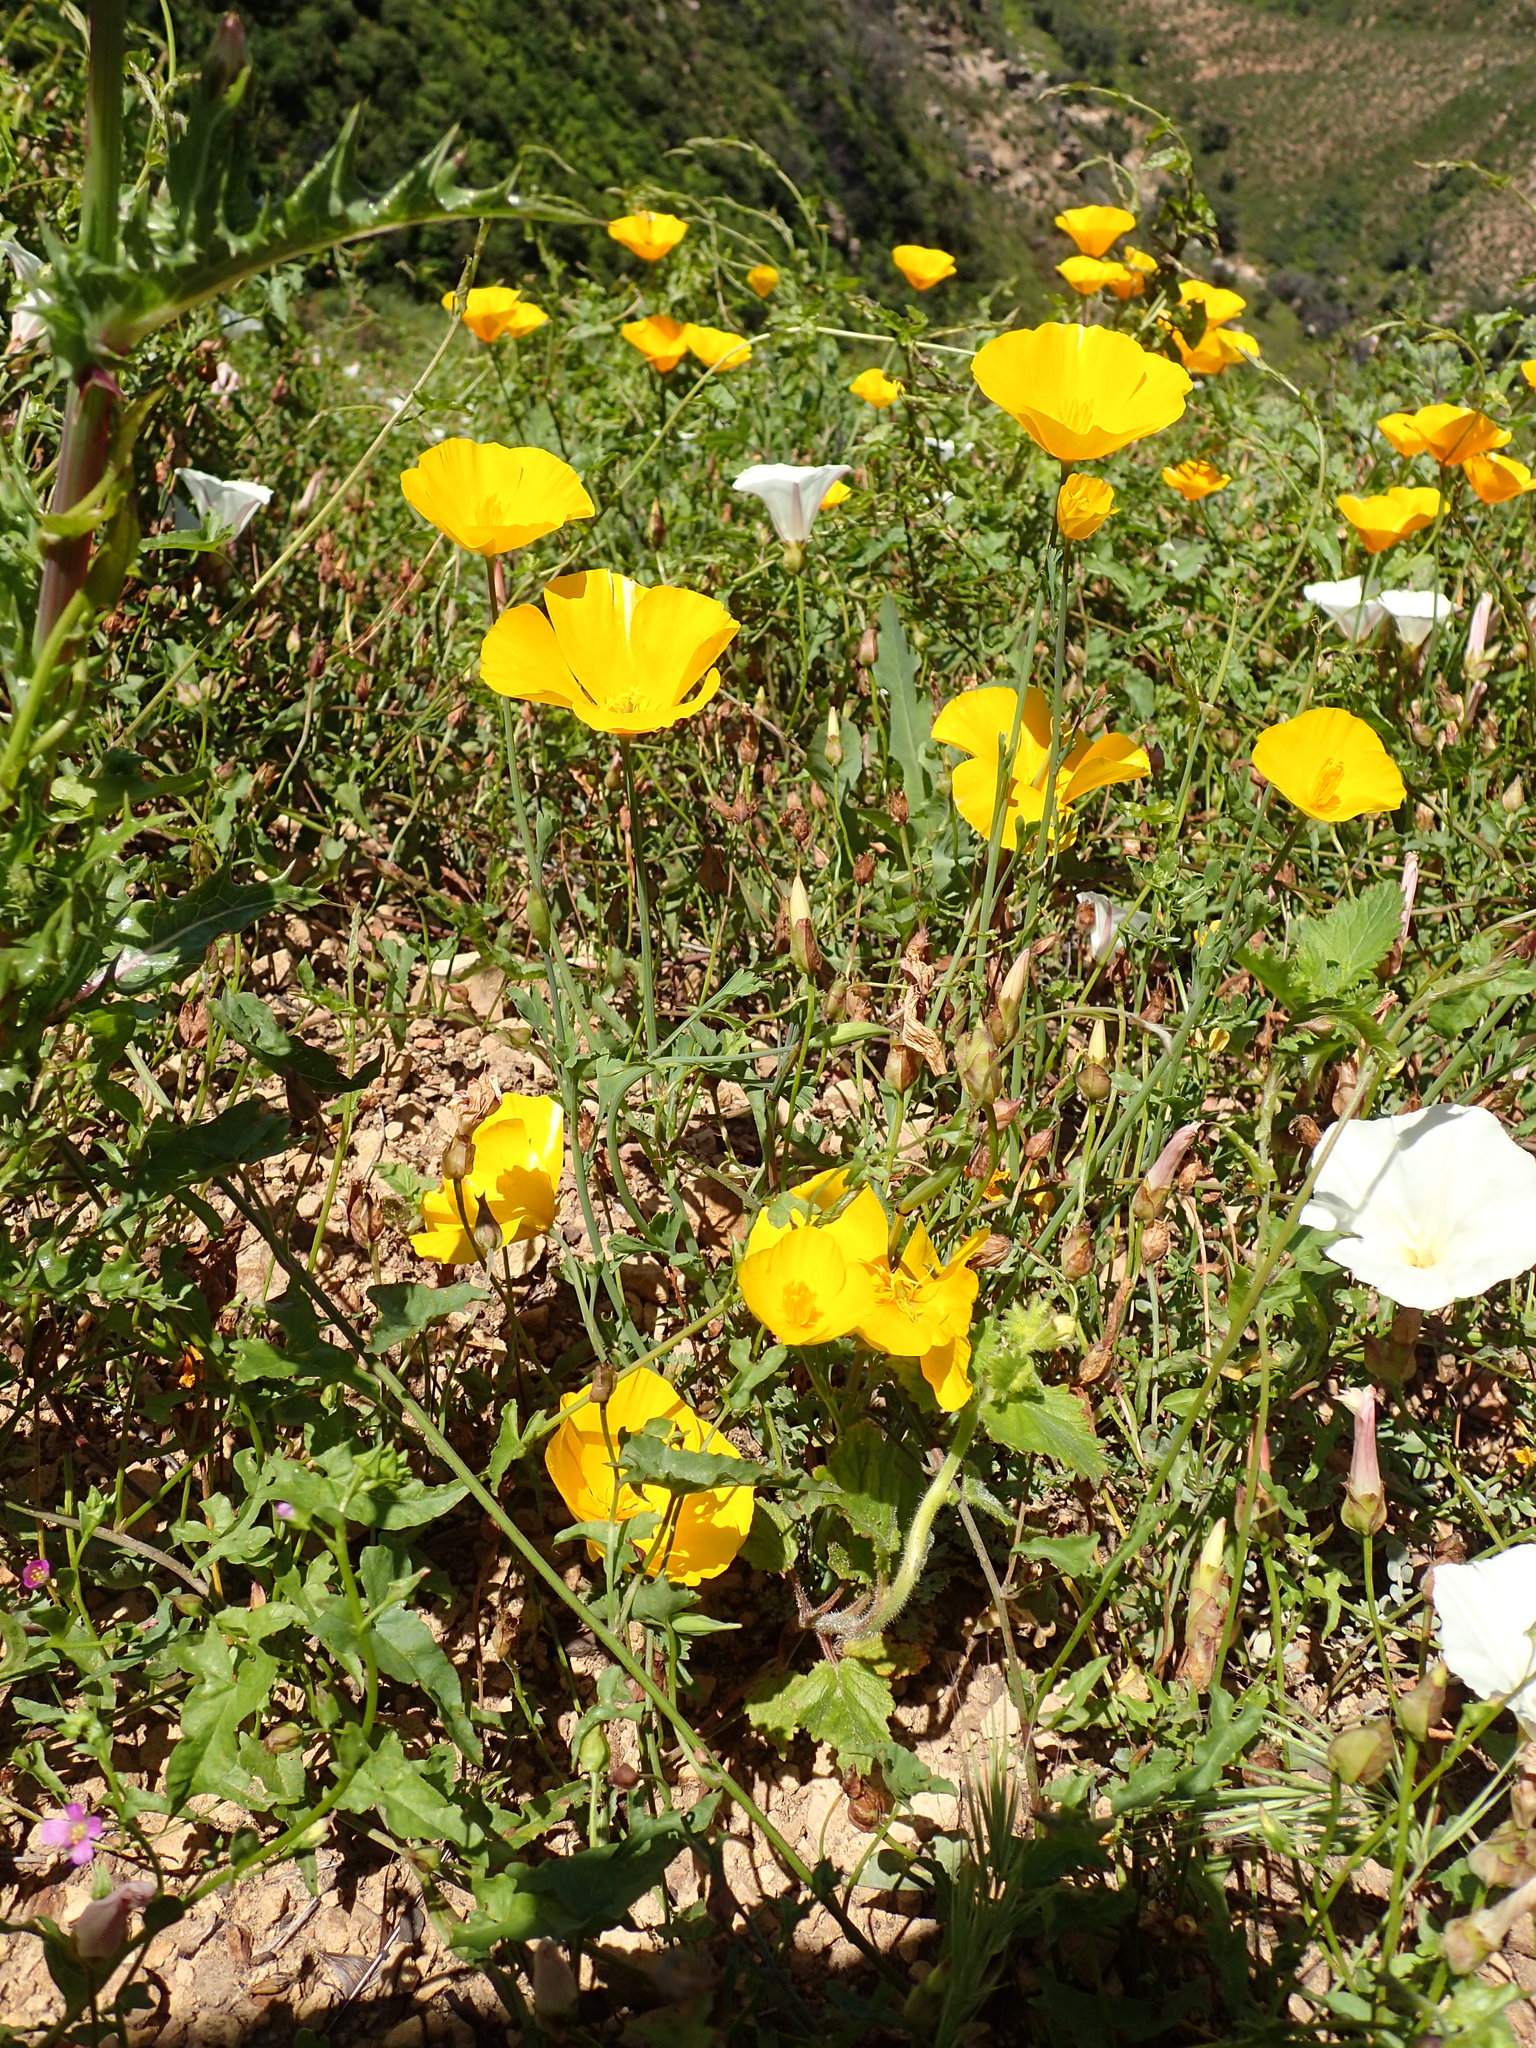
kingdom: Plantae
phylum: Tracheophyta
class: Magnoliopsida
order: Ranunculales
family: Papaveraceae
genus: Eschscholzia
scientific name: Eschscholzia caespitosa
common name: Tufted california-poppy
